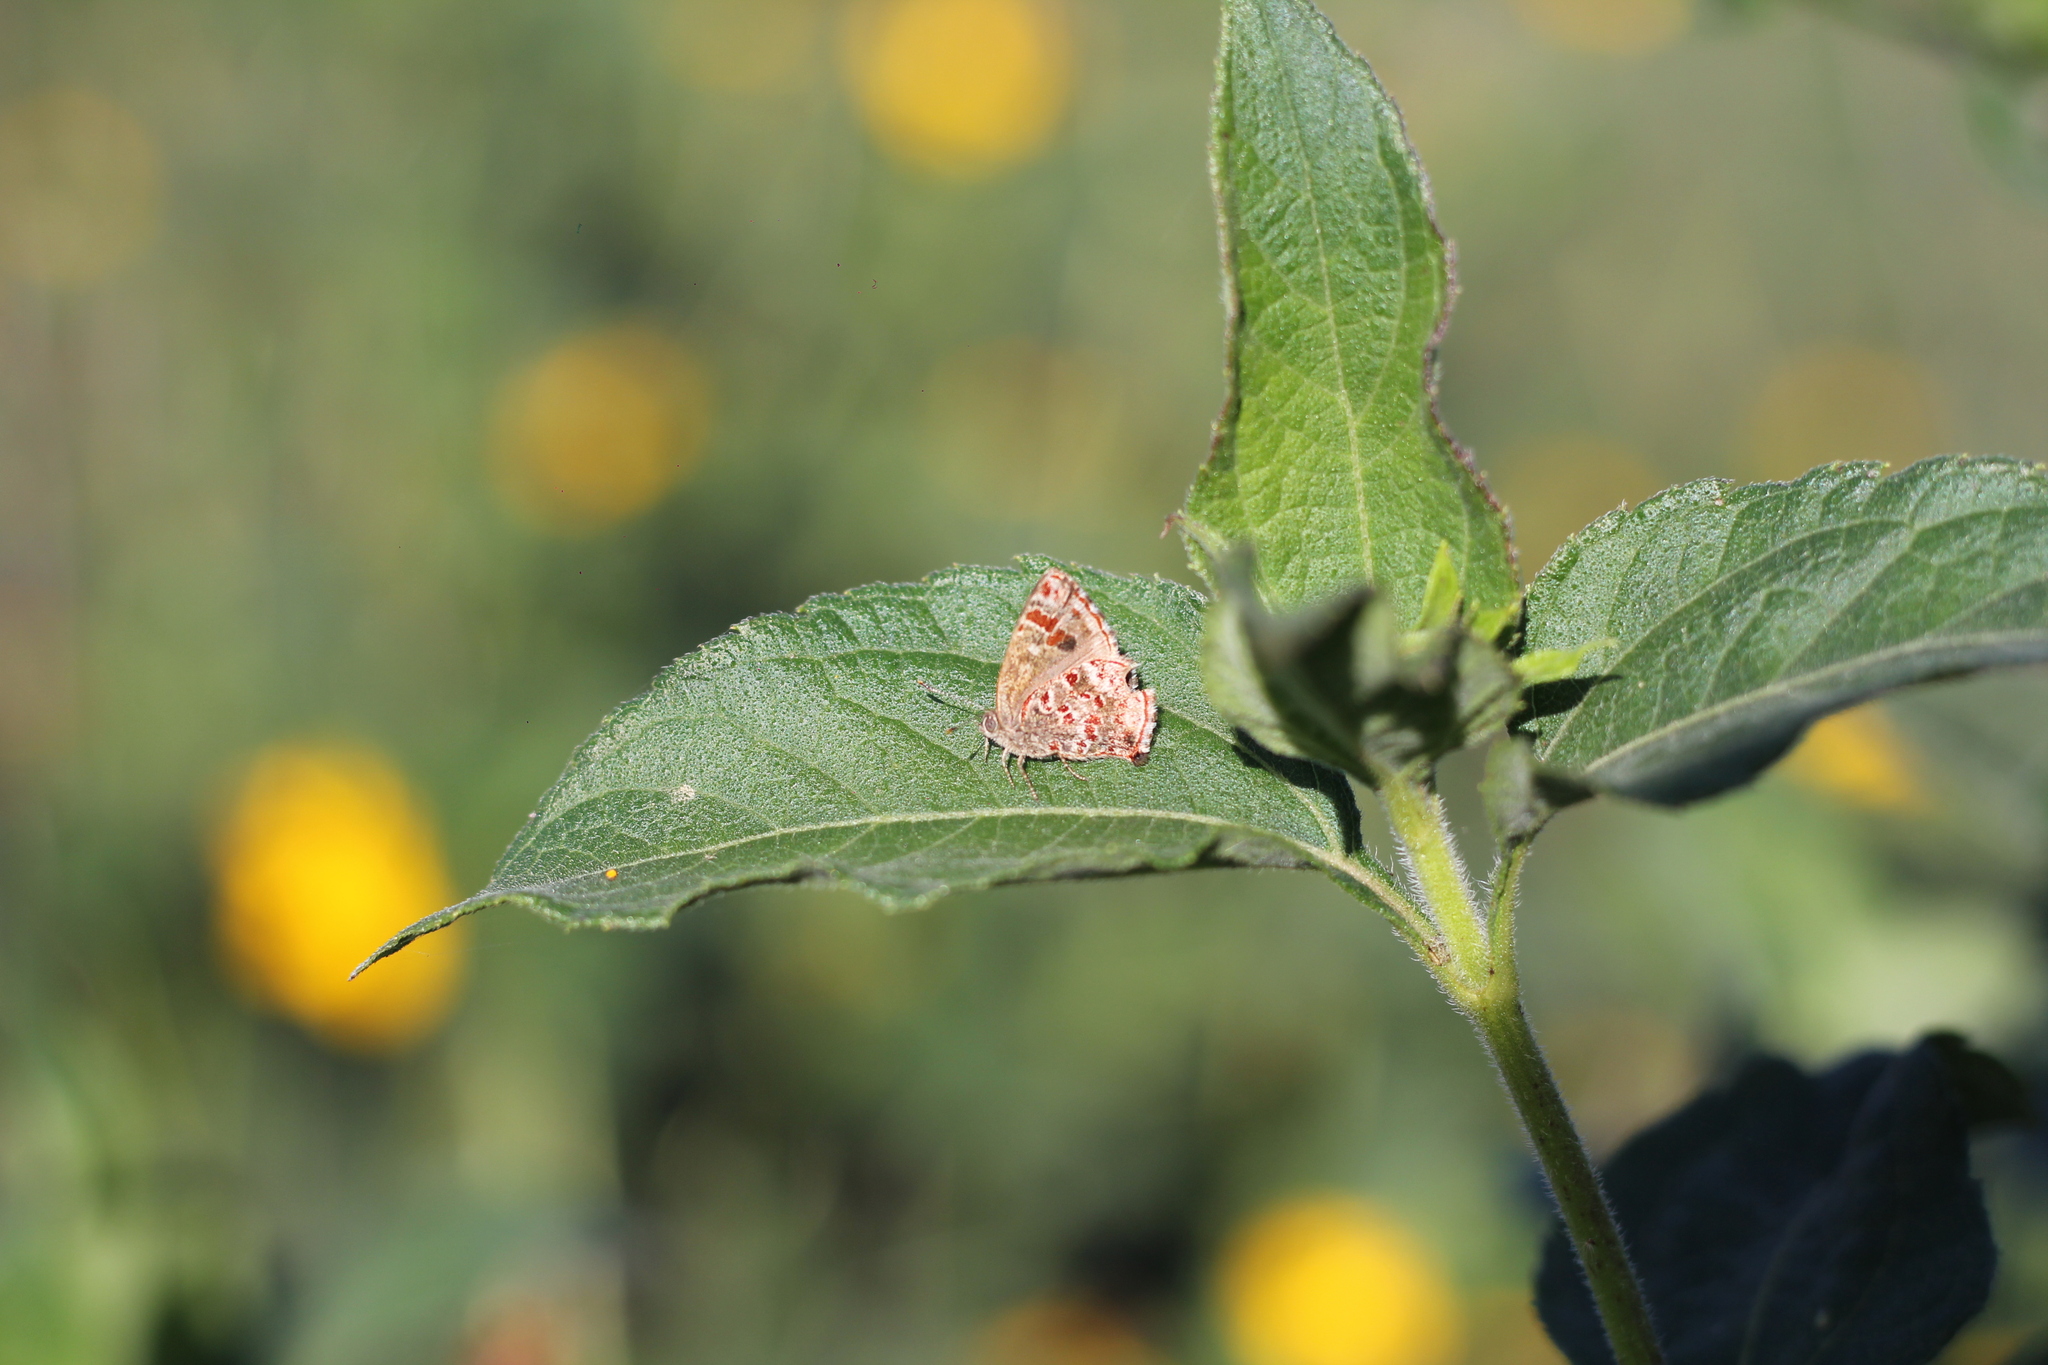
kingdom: Animalia
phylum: Arthropoda
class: Insecta
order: Lepidoptera
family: Lycaenidae
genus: Ministrymon
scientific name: Ministrymon
